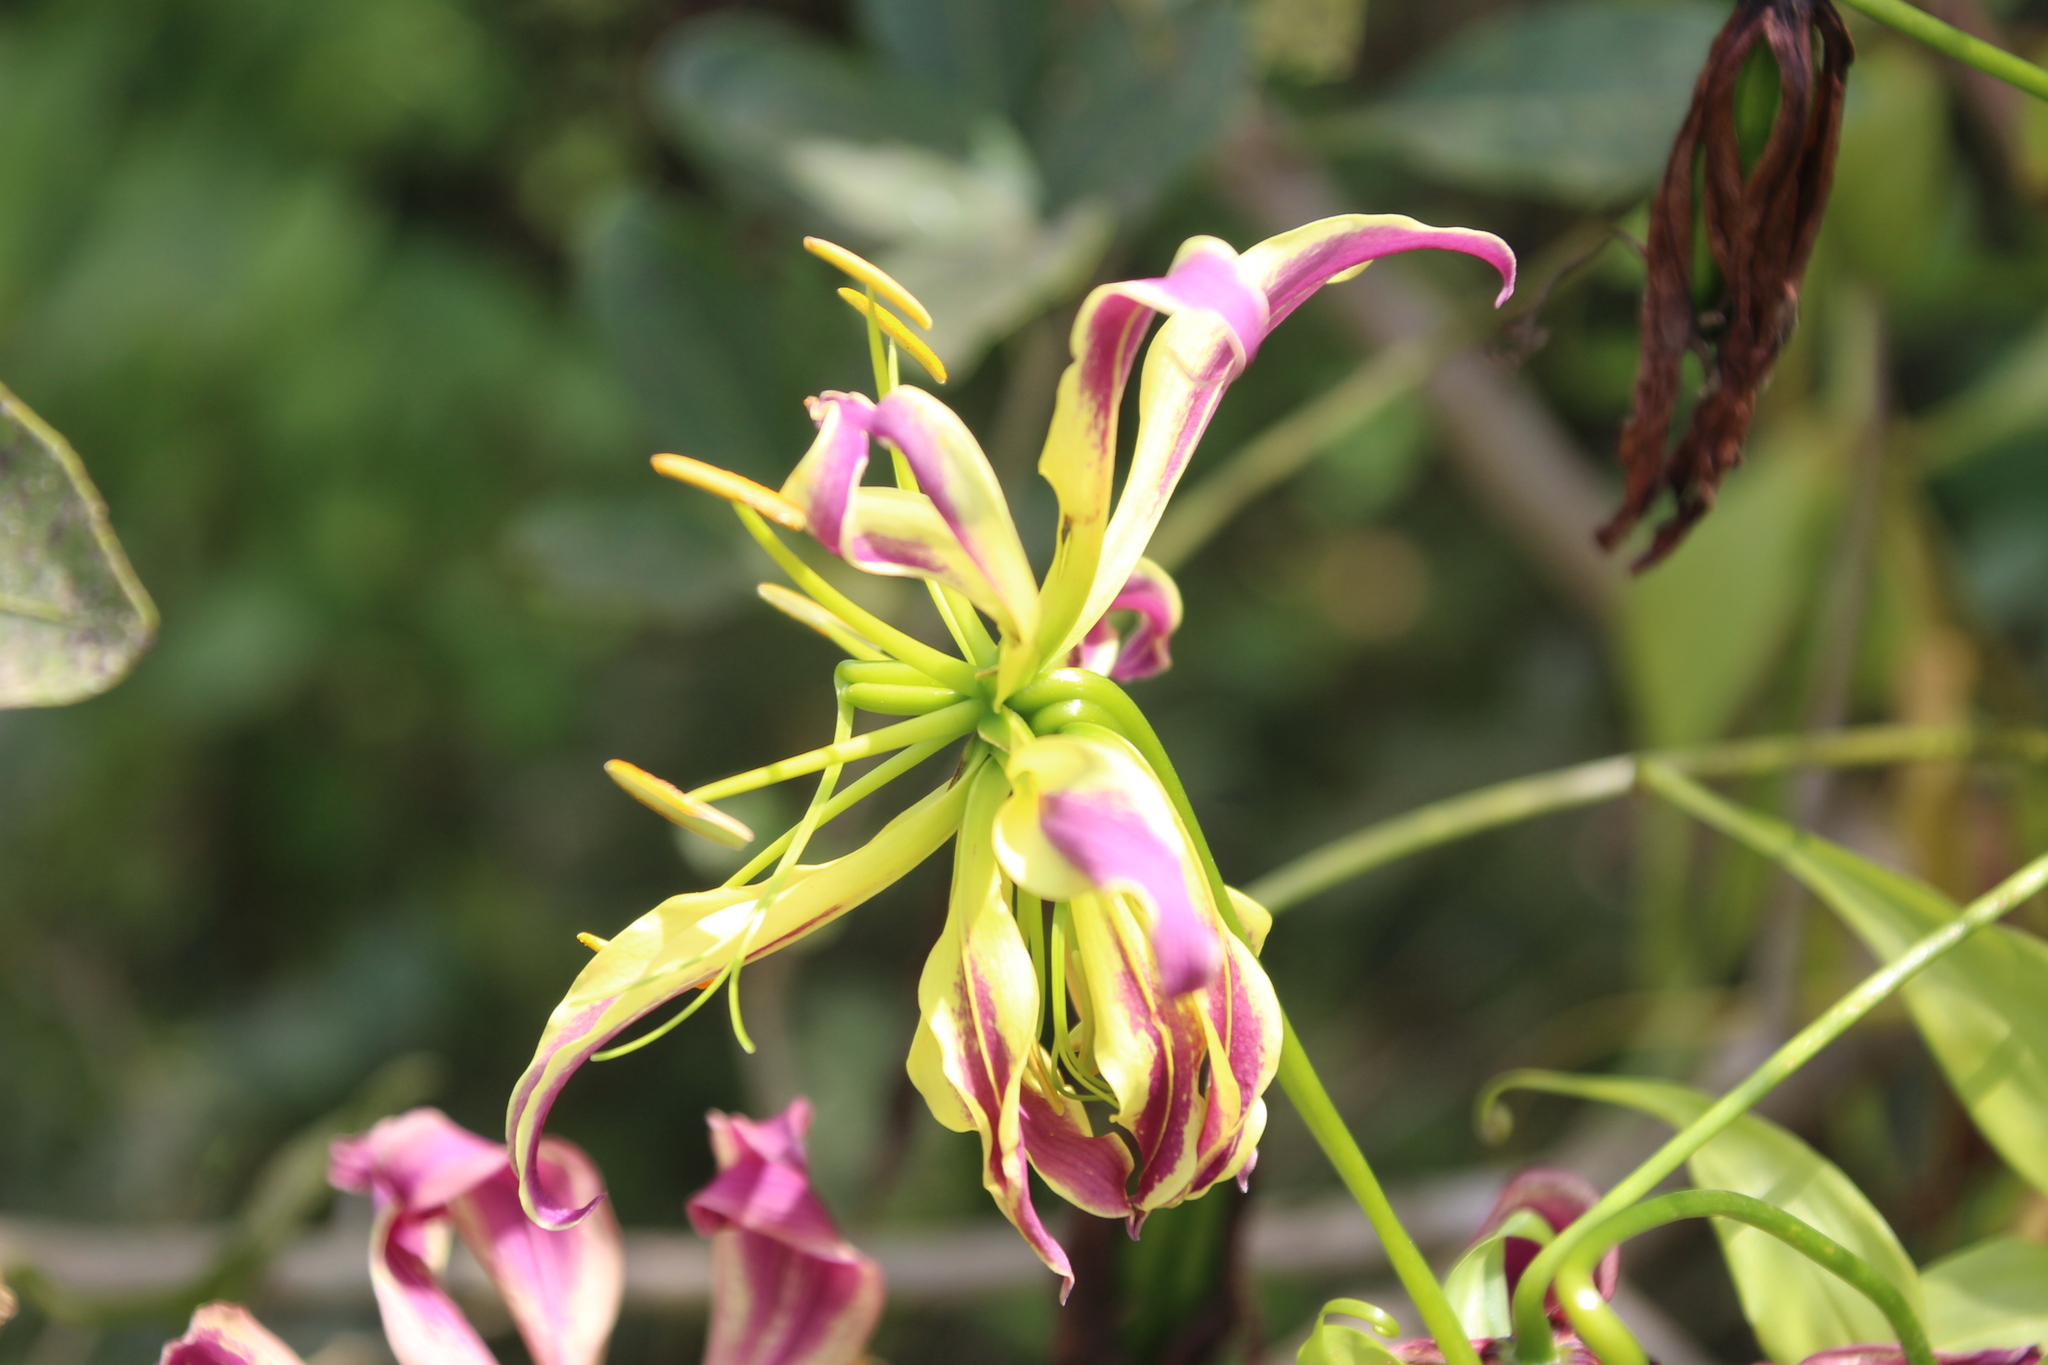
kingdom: Plantae
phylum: Tracheophyta
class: Liliopsida
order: Liliales
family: Colchicaceae
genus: Gloriosa
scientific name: Gloriosa superba
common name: Flame lily
